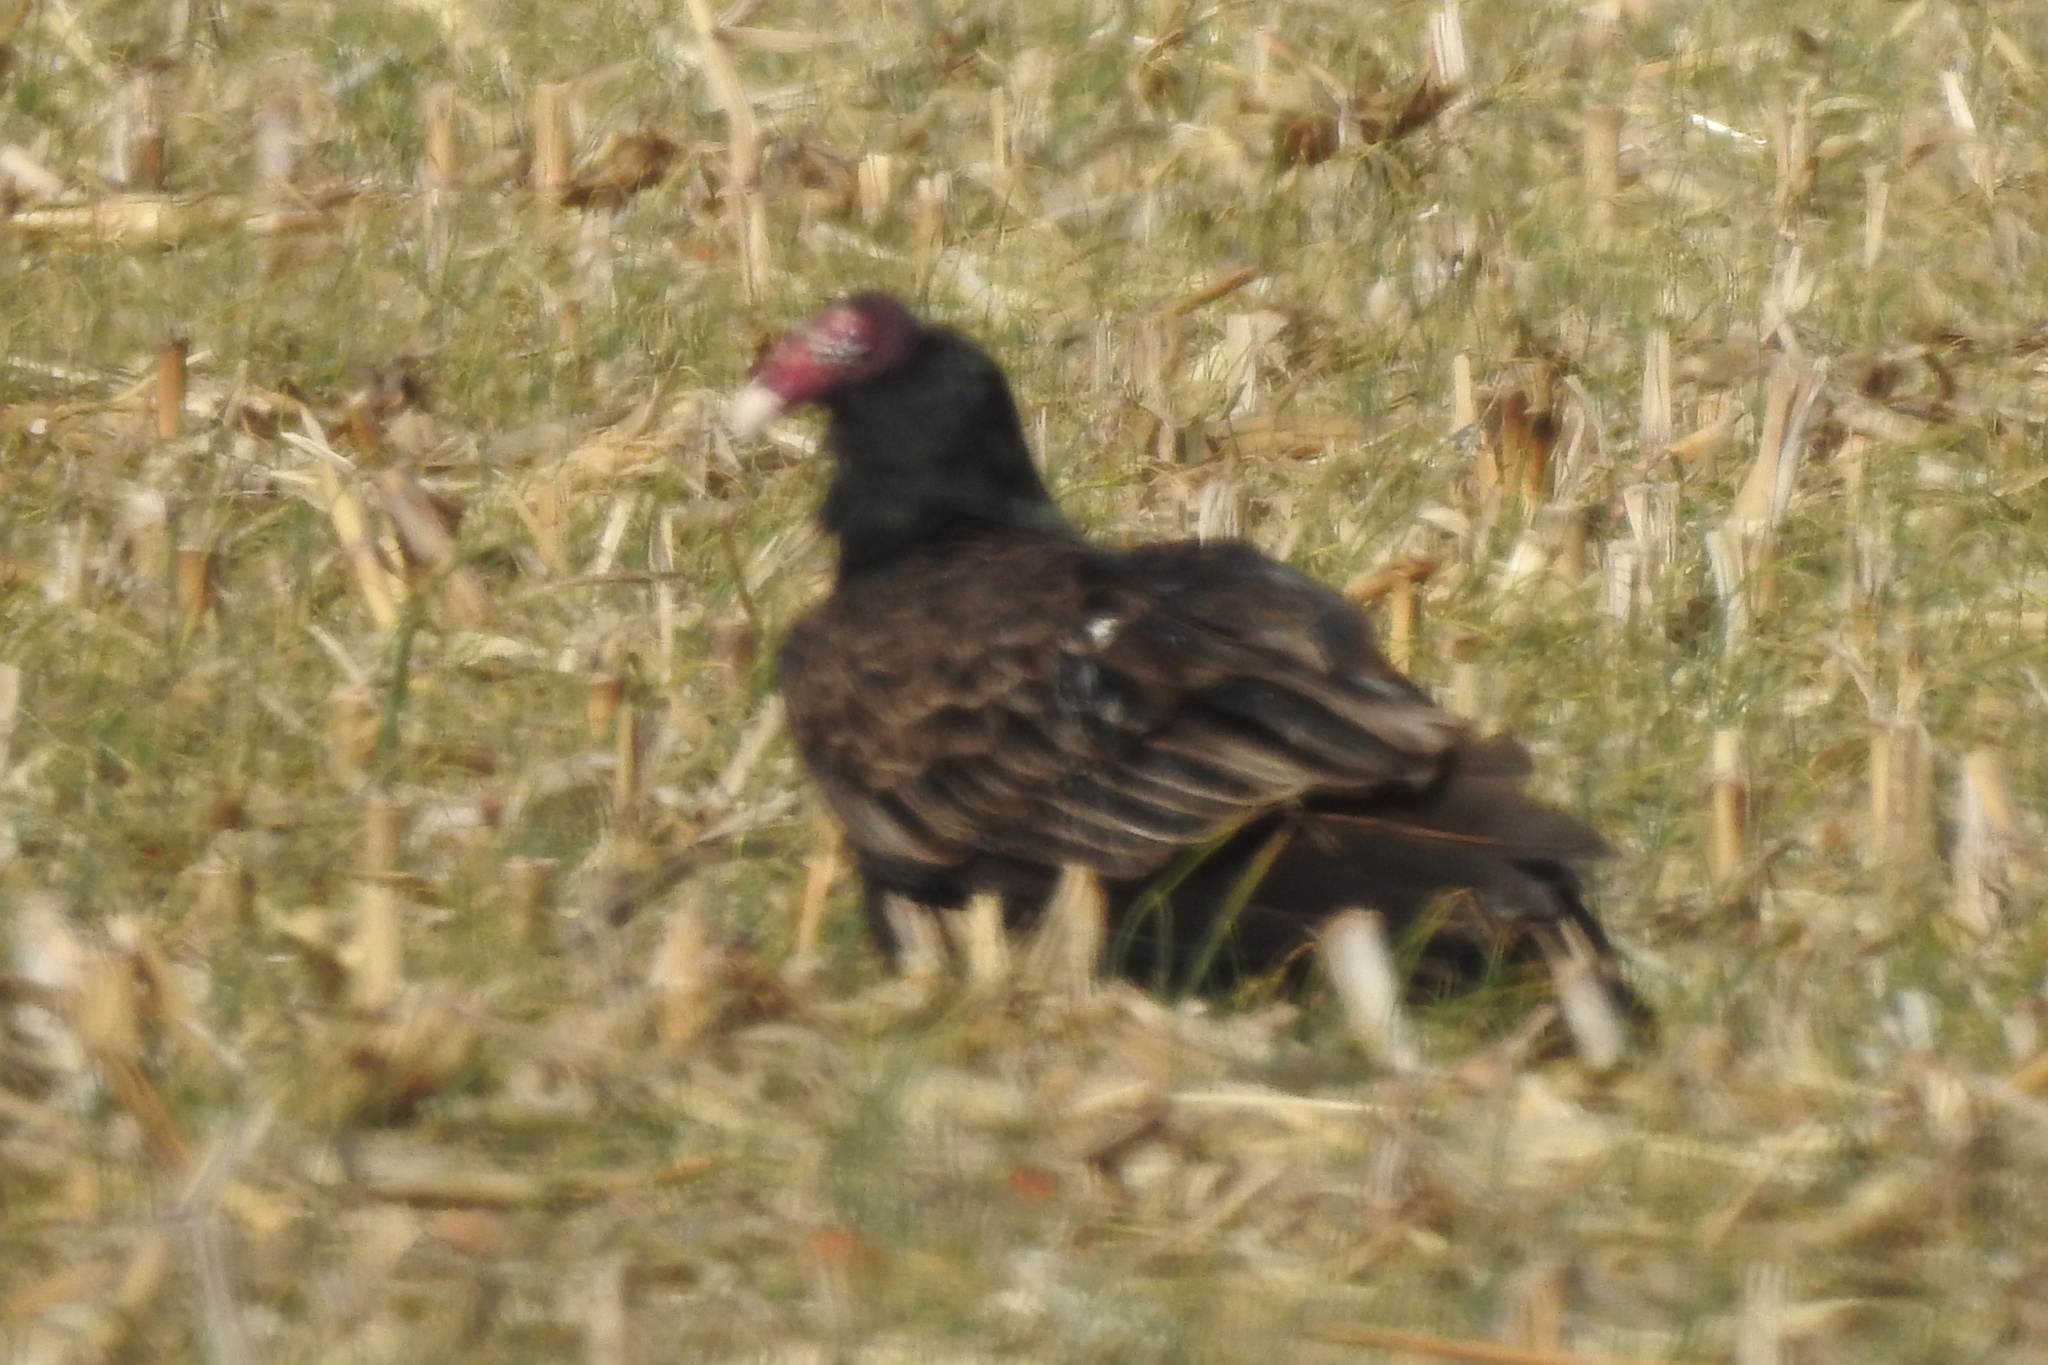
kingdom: Animalia
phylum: Chordata
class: Aves
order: Accipitriformes
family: Cathartidae
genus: Cathartes
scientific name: Cathartes aura
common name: Turkey vulture
